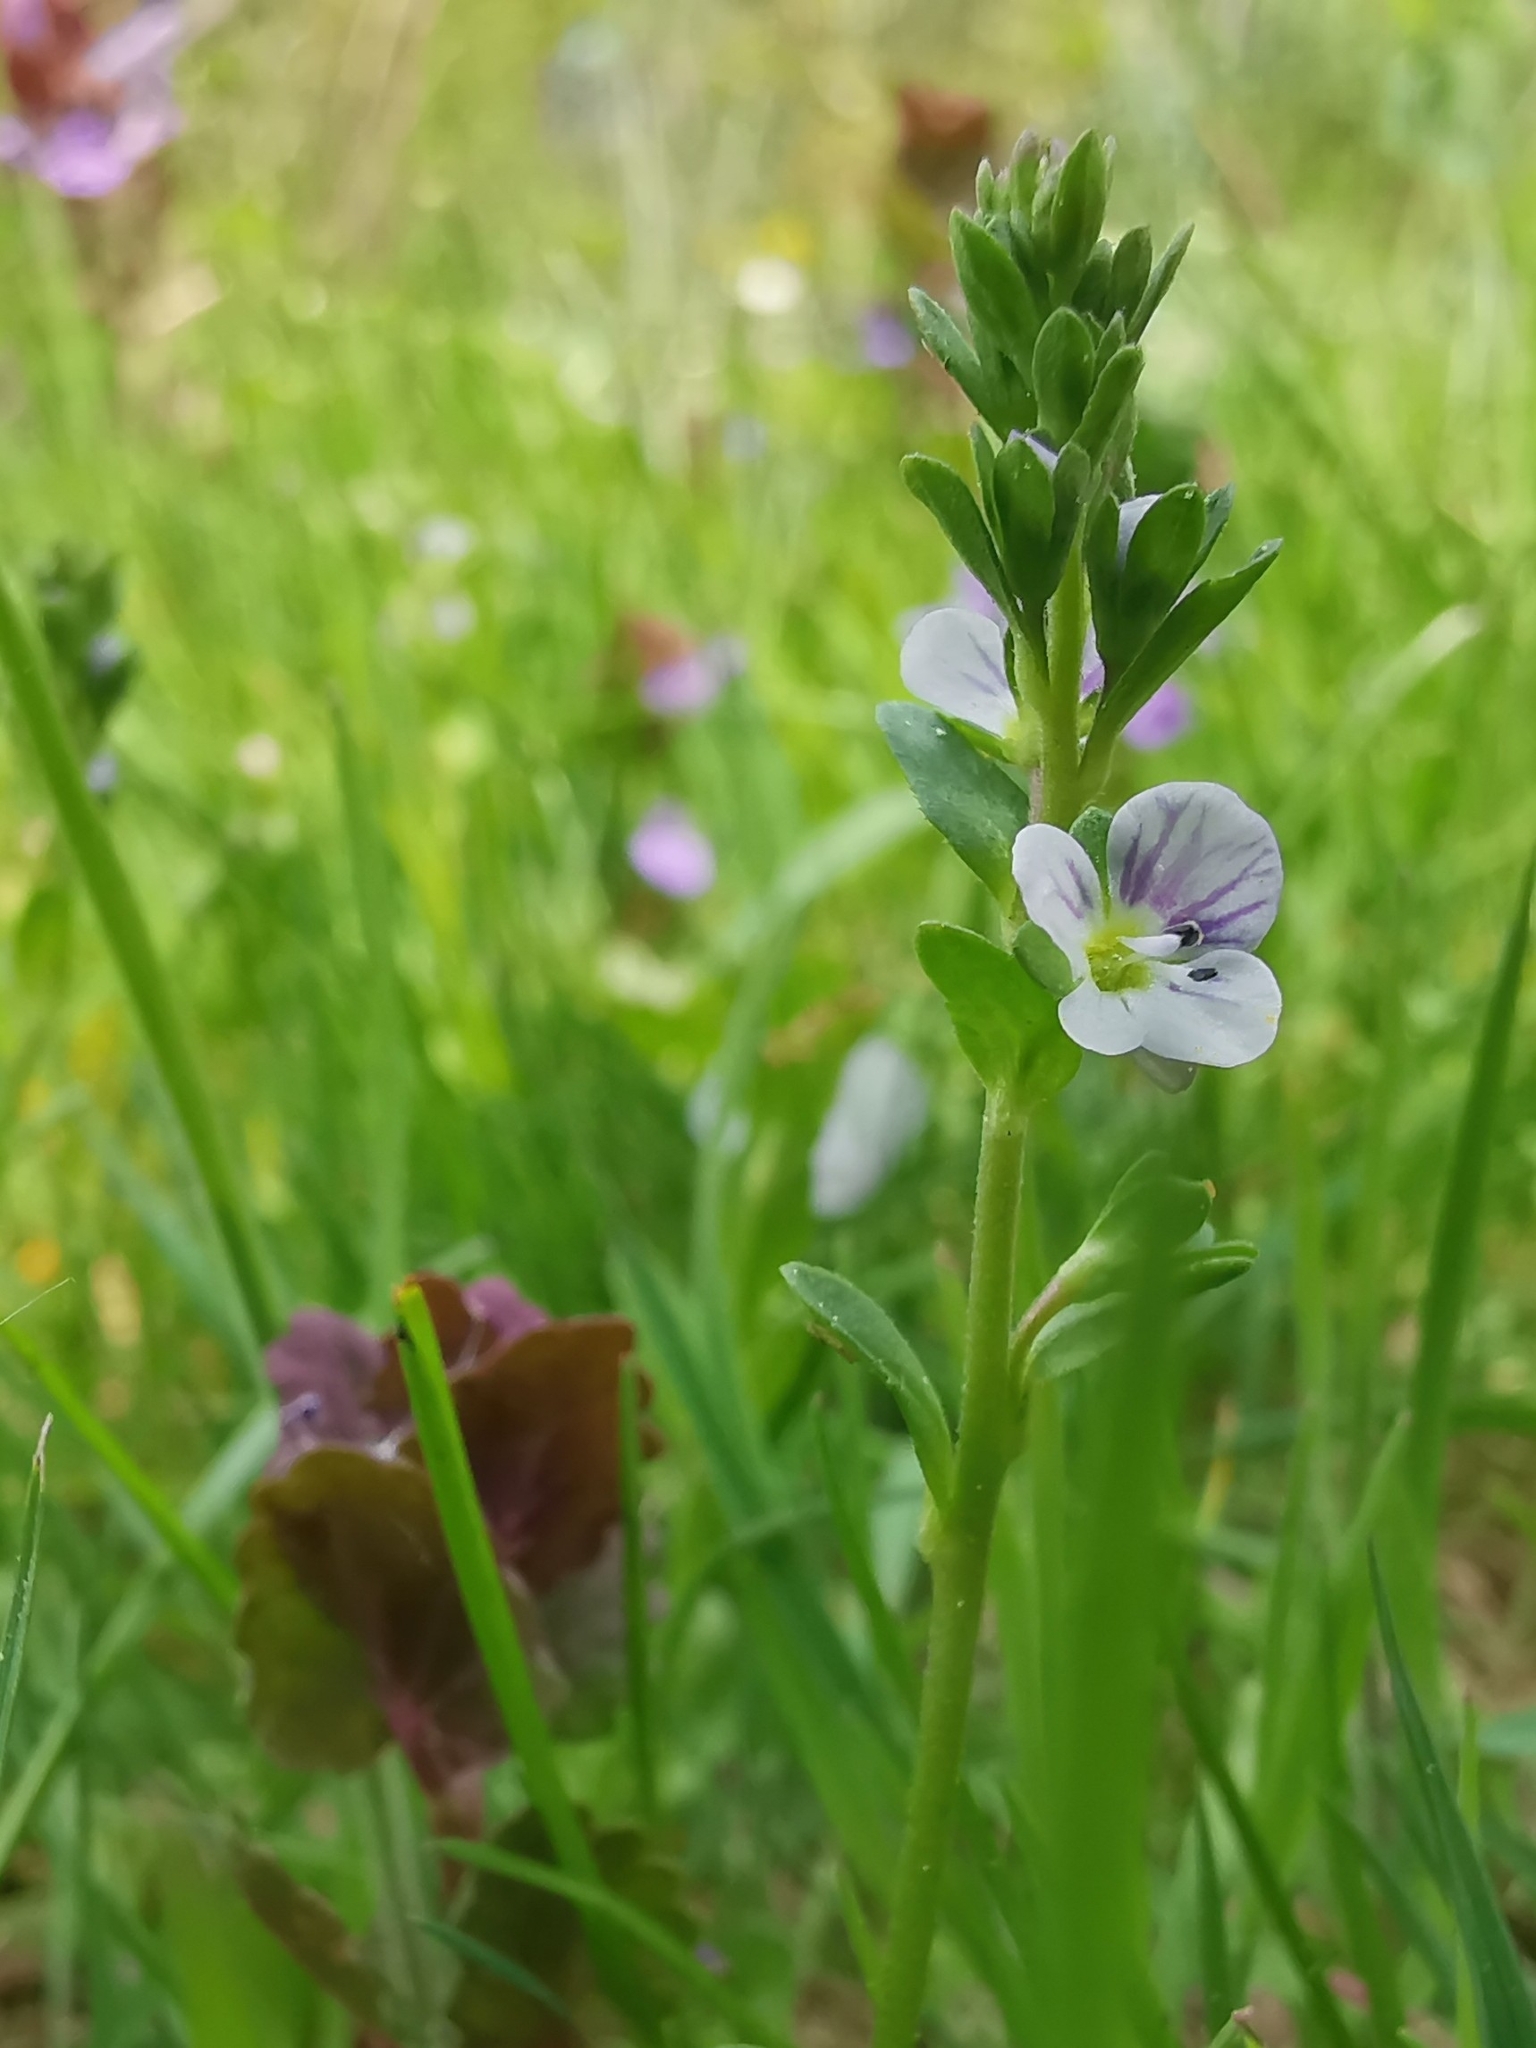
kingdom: Plantae
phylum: Tracheophyta
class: Magnoliopsida
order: Lamiales
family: Plantaginaceae
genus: Veronica
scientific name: Veronica serpyllifolia
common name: Thyme-leaved speedwell
